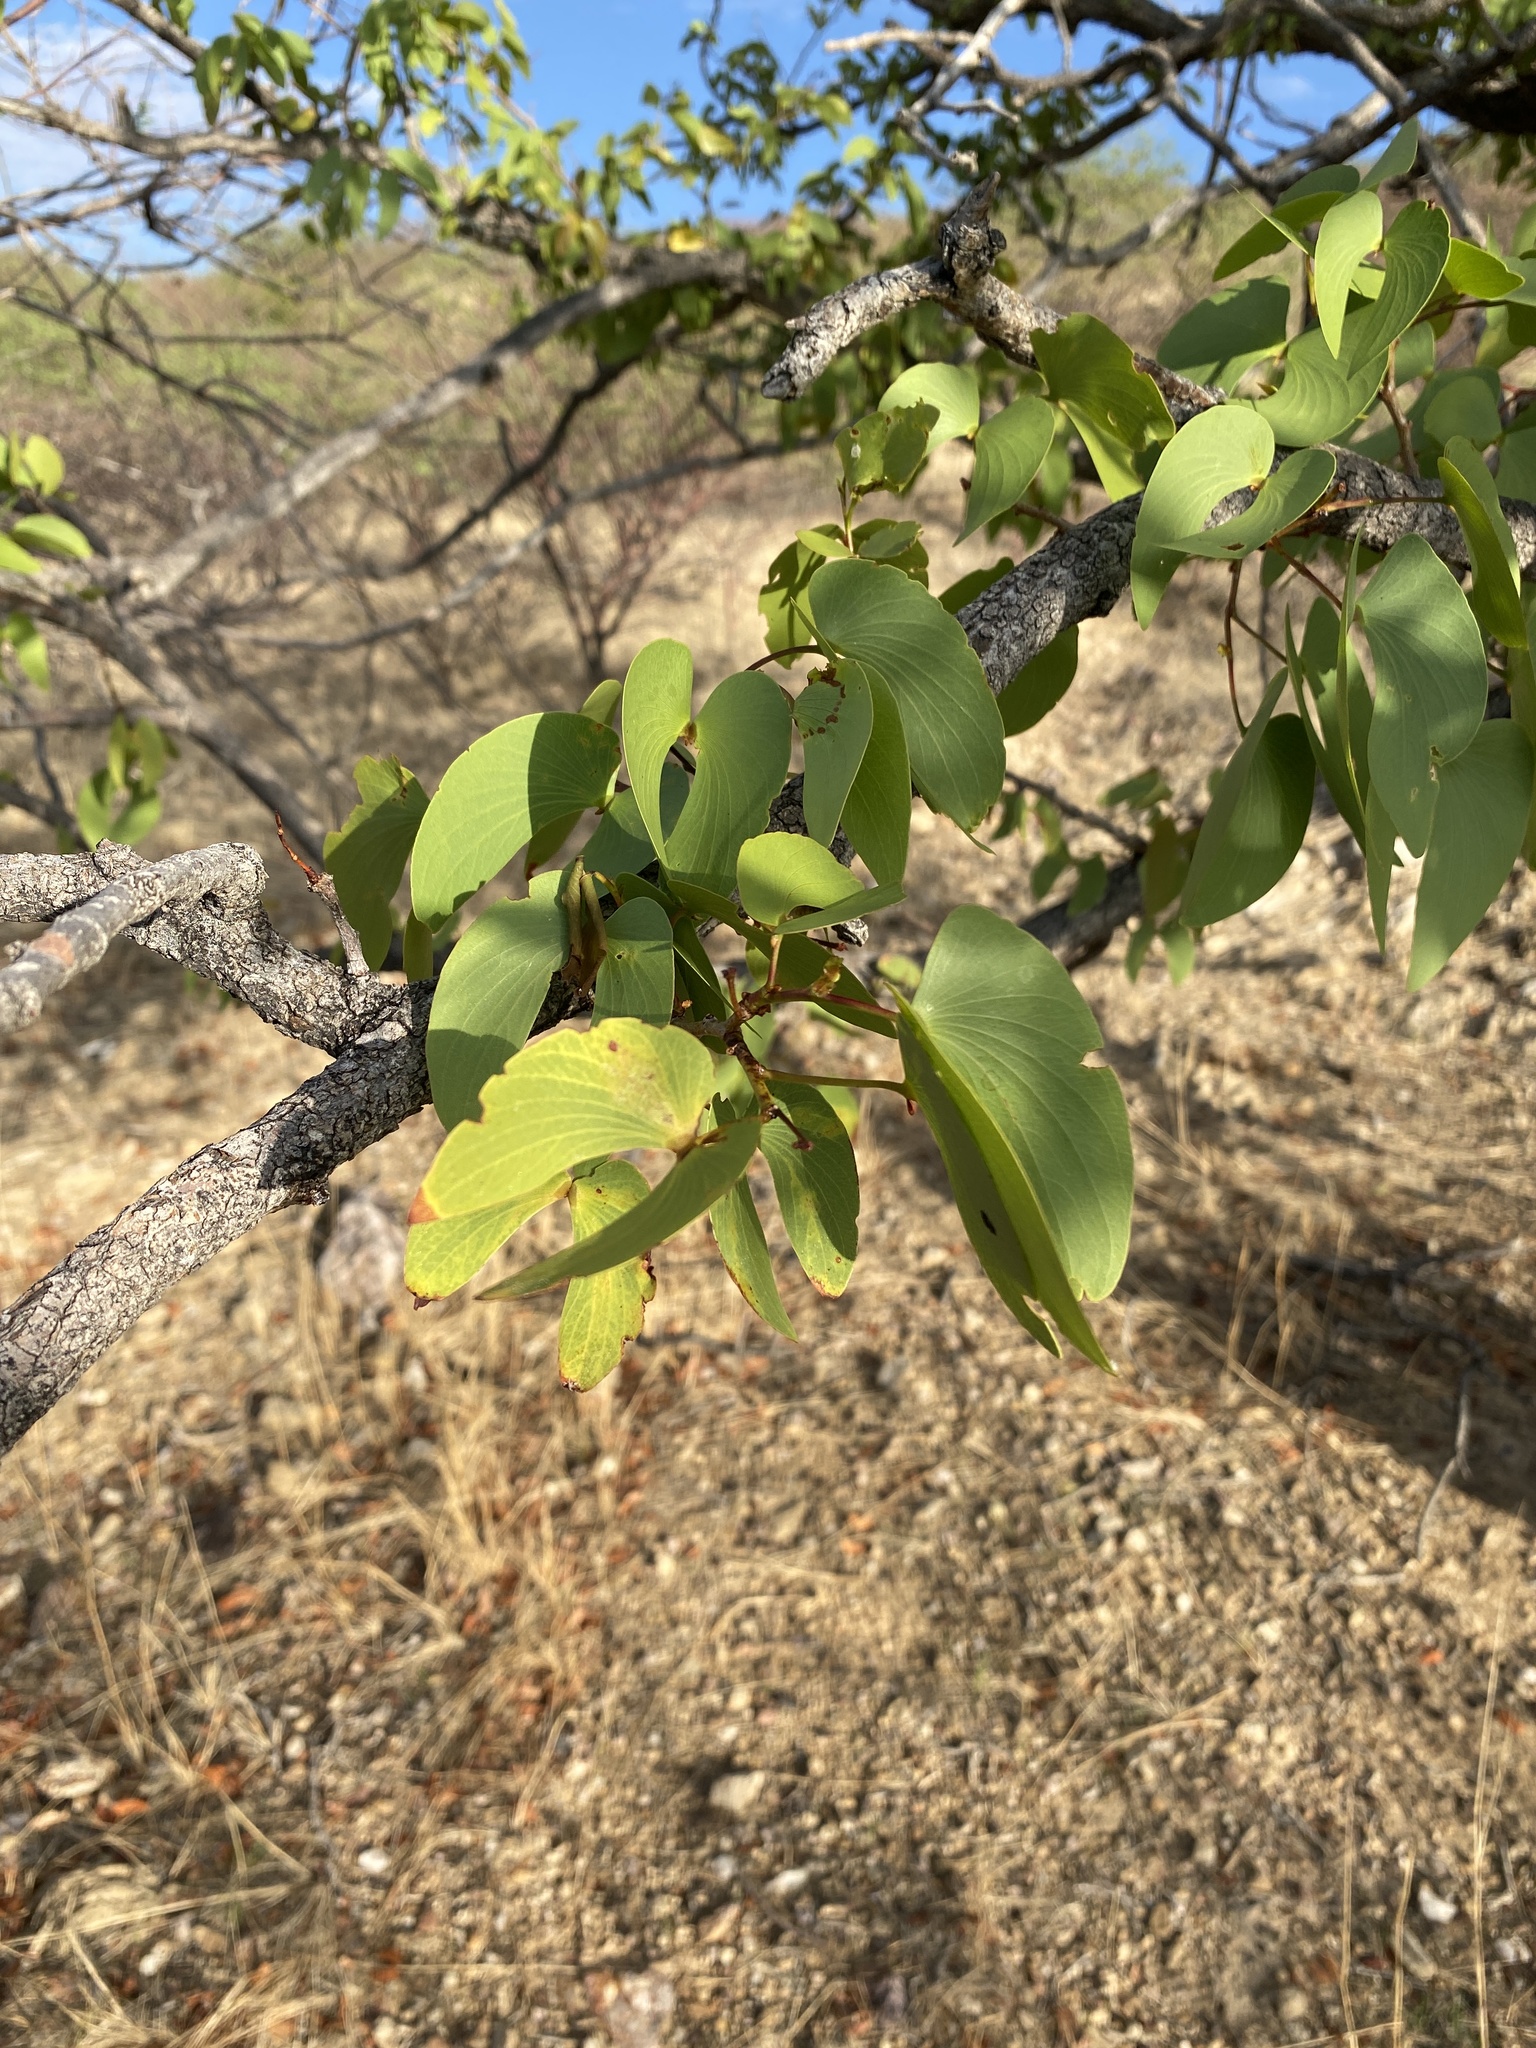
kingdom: Plantae
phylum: Tracheophyta
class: Magnoliopsida
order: Fabales
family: Fabaceae
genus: Colophospermum
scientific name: Colophospermum mopane
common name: Mopane
